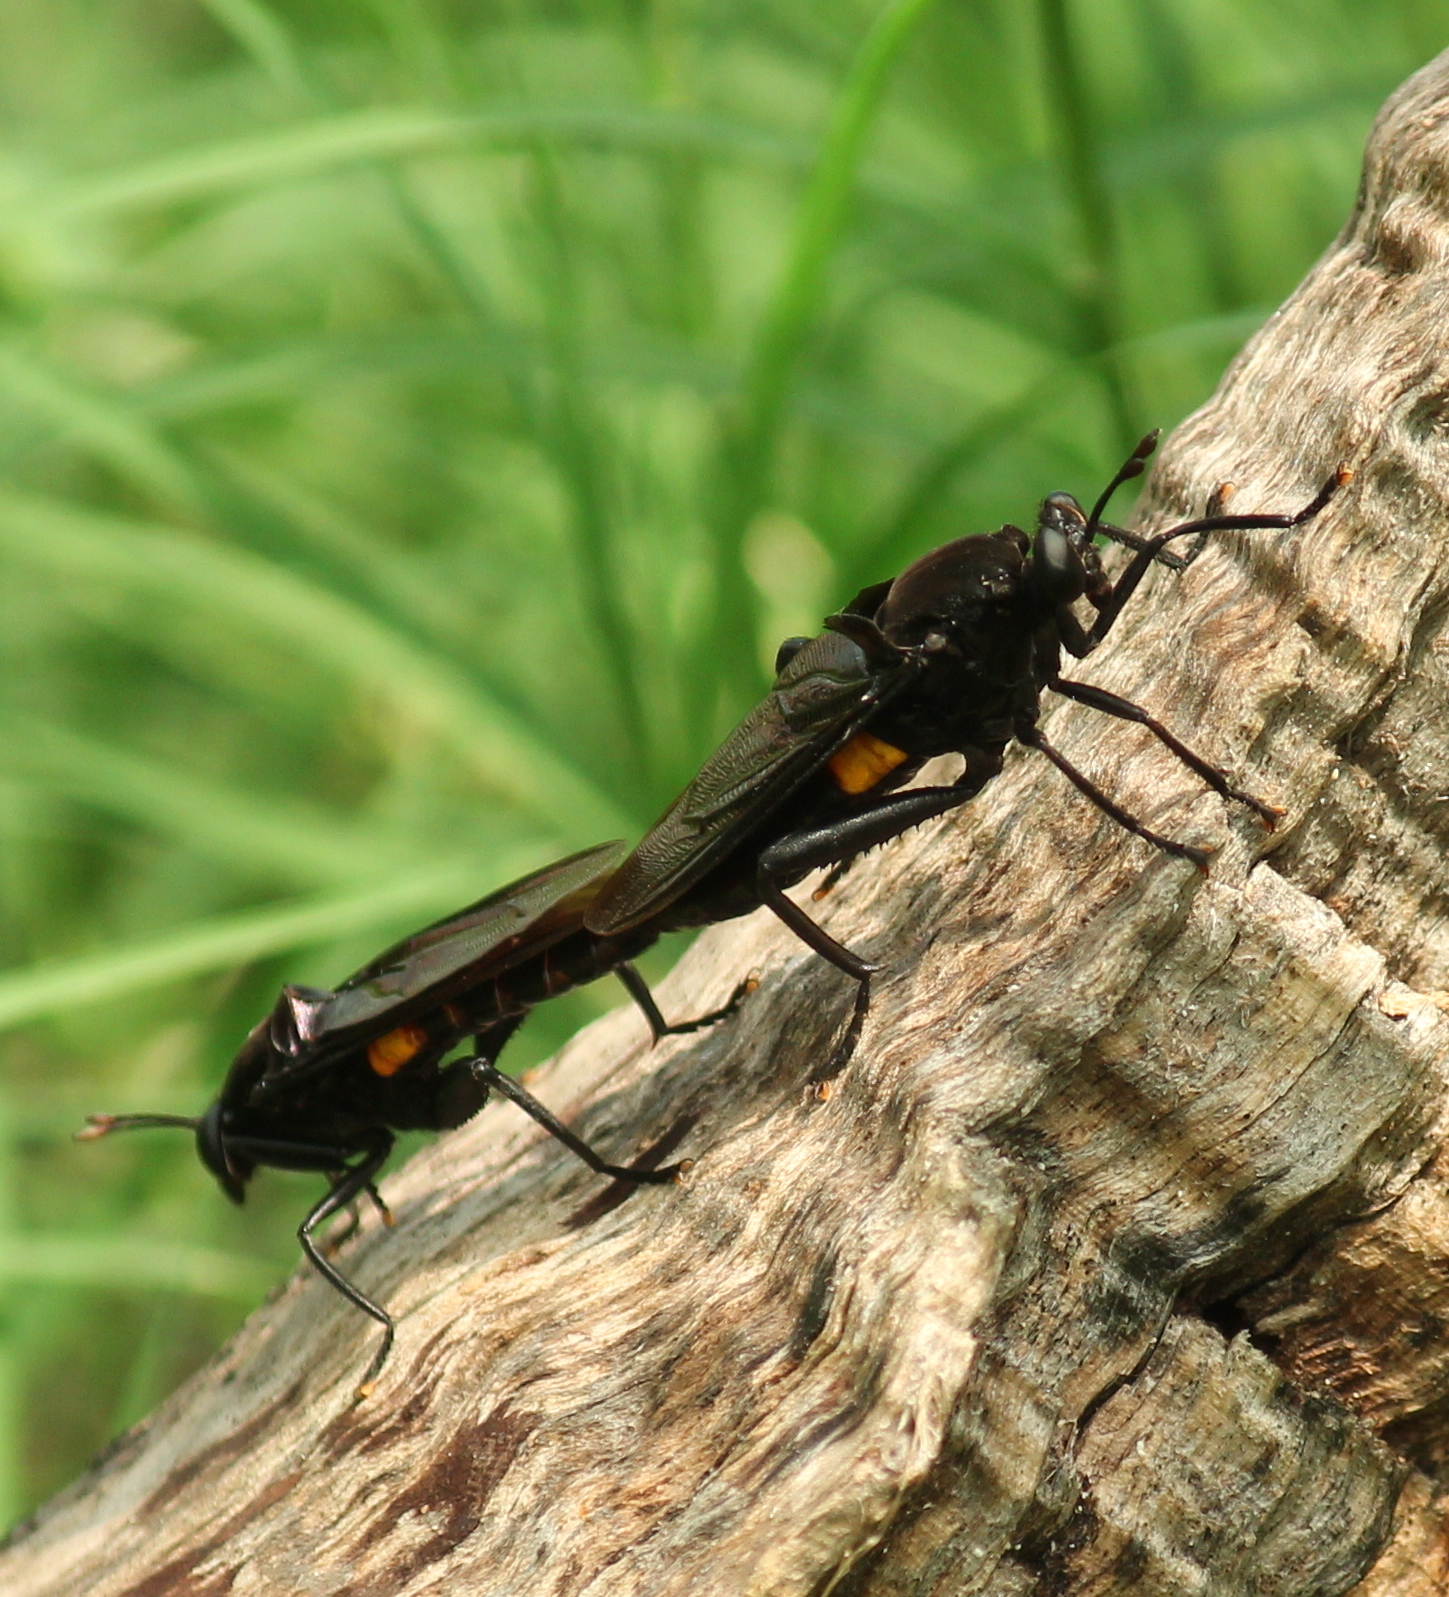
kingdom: Animalia
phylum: Arthropoda
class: Insecta
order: Diptera
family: Mydidae
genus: Mydas
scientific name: Mydas clavatus
